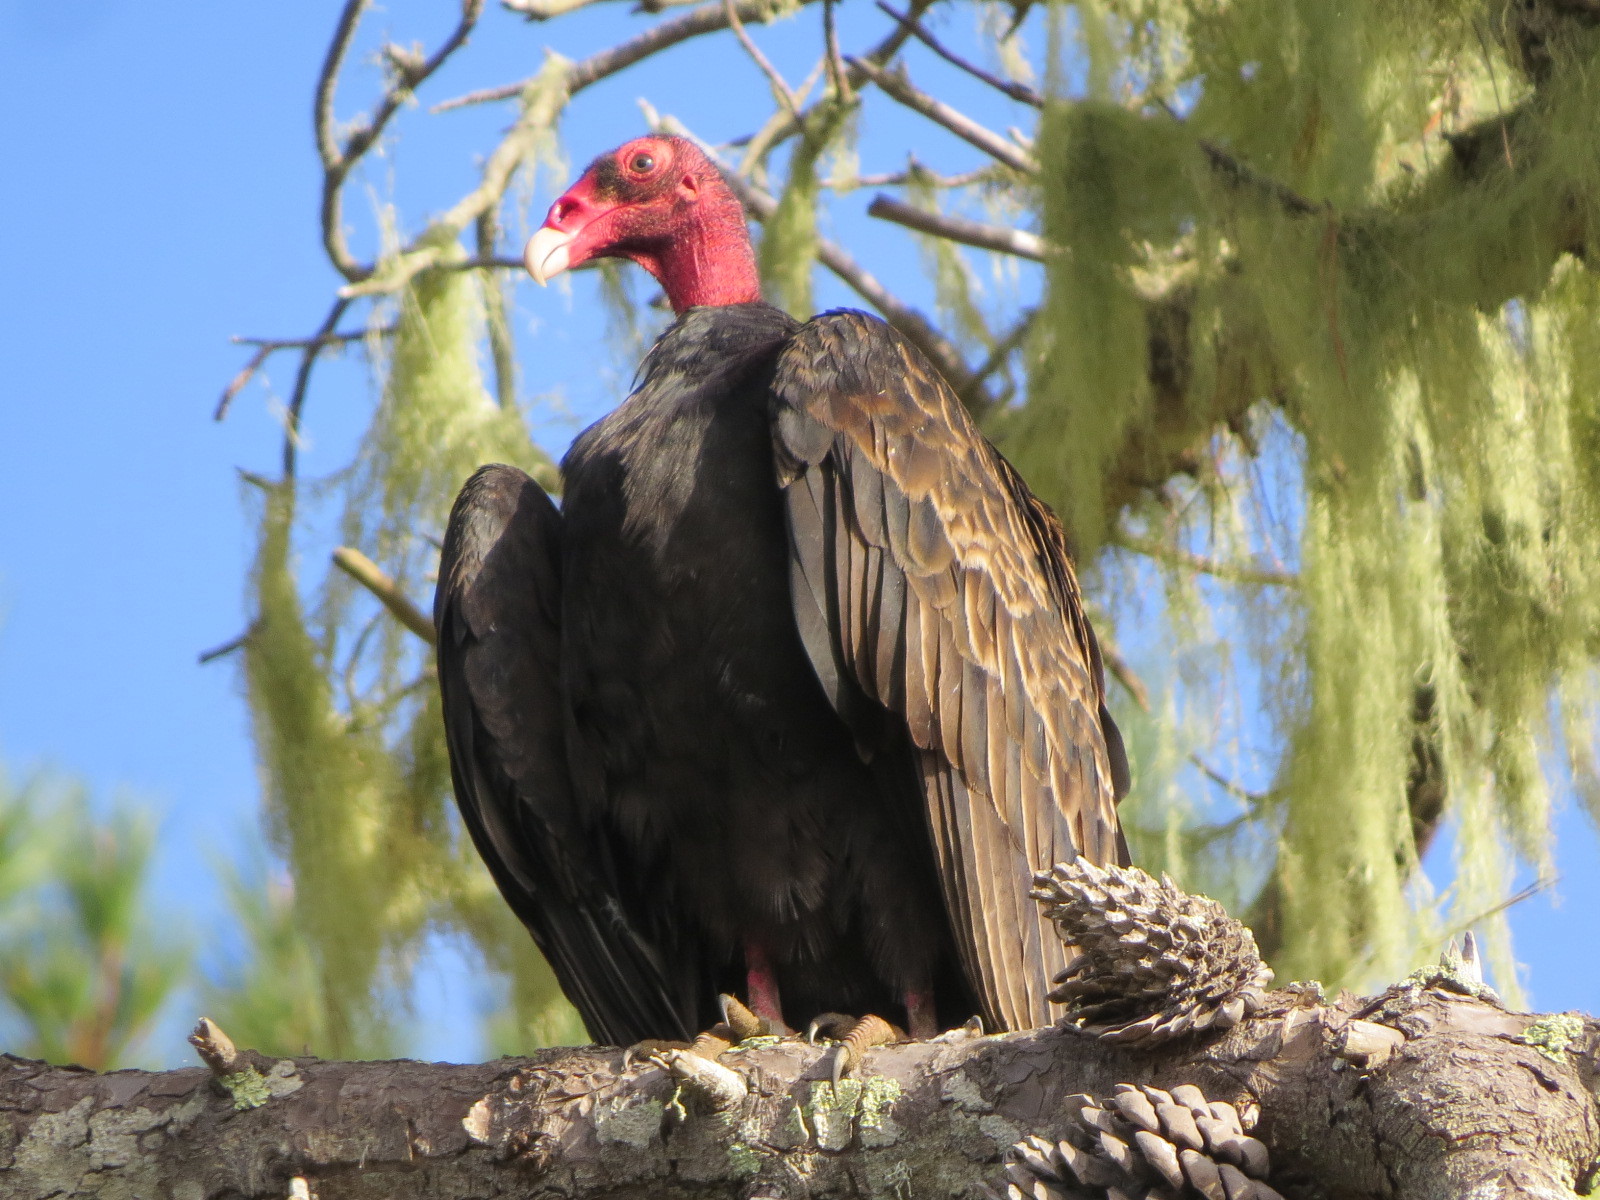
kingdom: Animalia
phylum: Chordata
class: Aves
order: Accipitriformes
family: Cathartidae
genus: Cathartes
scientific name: Cathartes aura
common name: Turkey vulture
